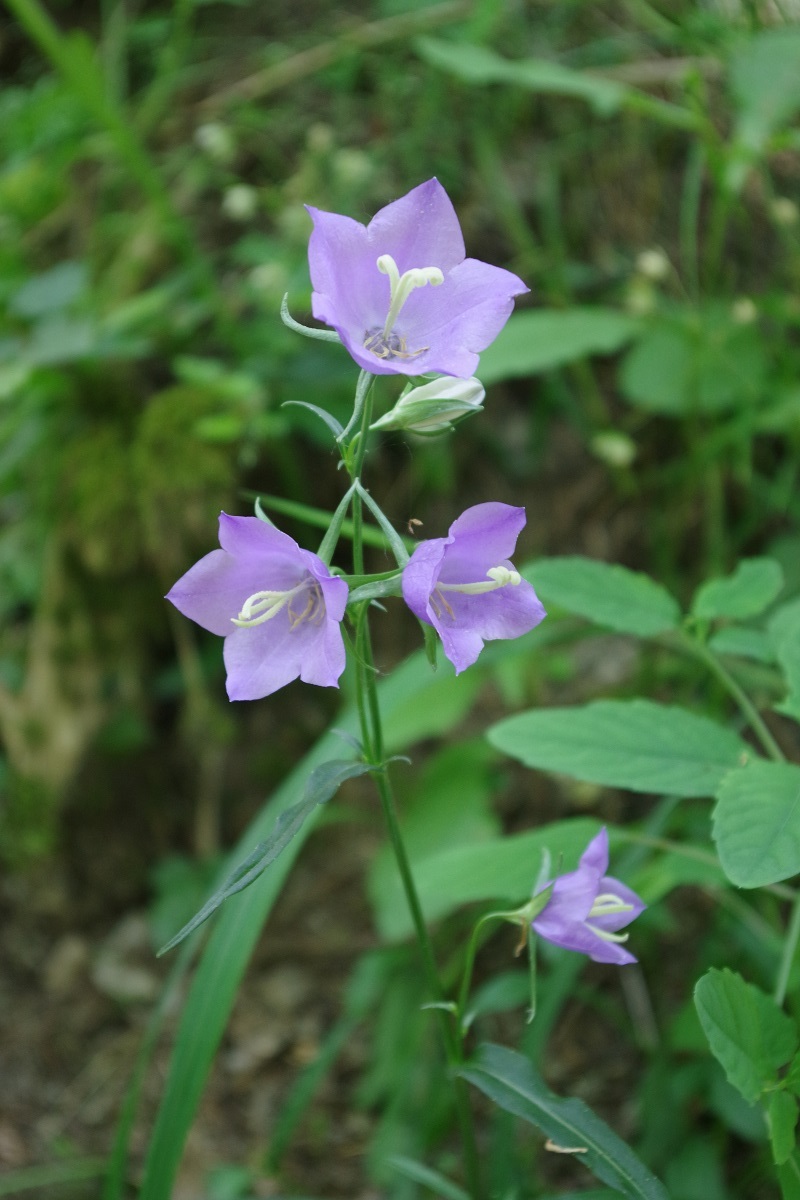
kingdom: Plantae
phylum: Tracheophyta
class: Magnoliopsida
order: Asterales
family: Campanulaceae
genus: Campanula
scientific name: Campanula persicifolia
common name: Peach-leaved bellflower
